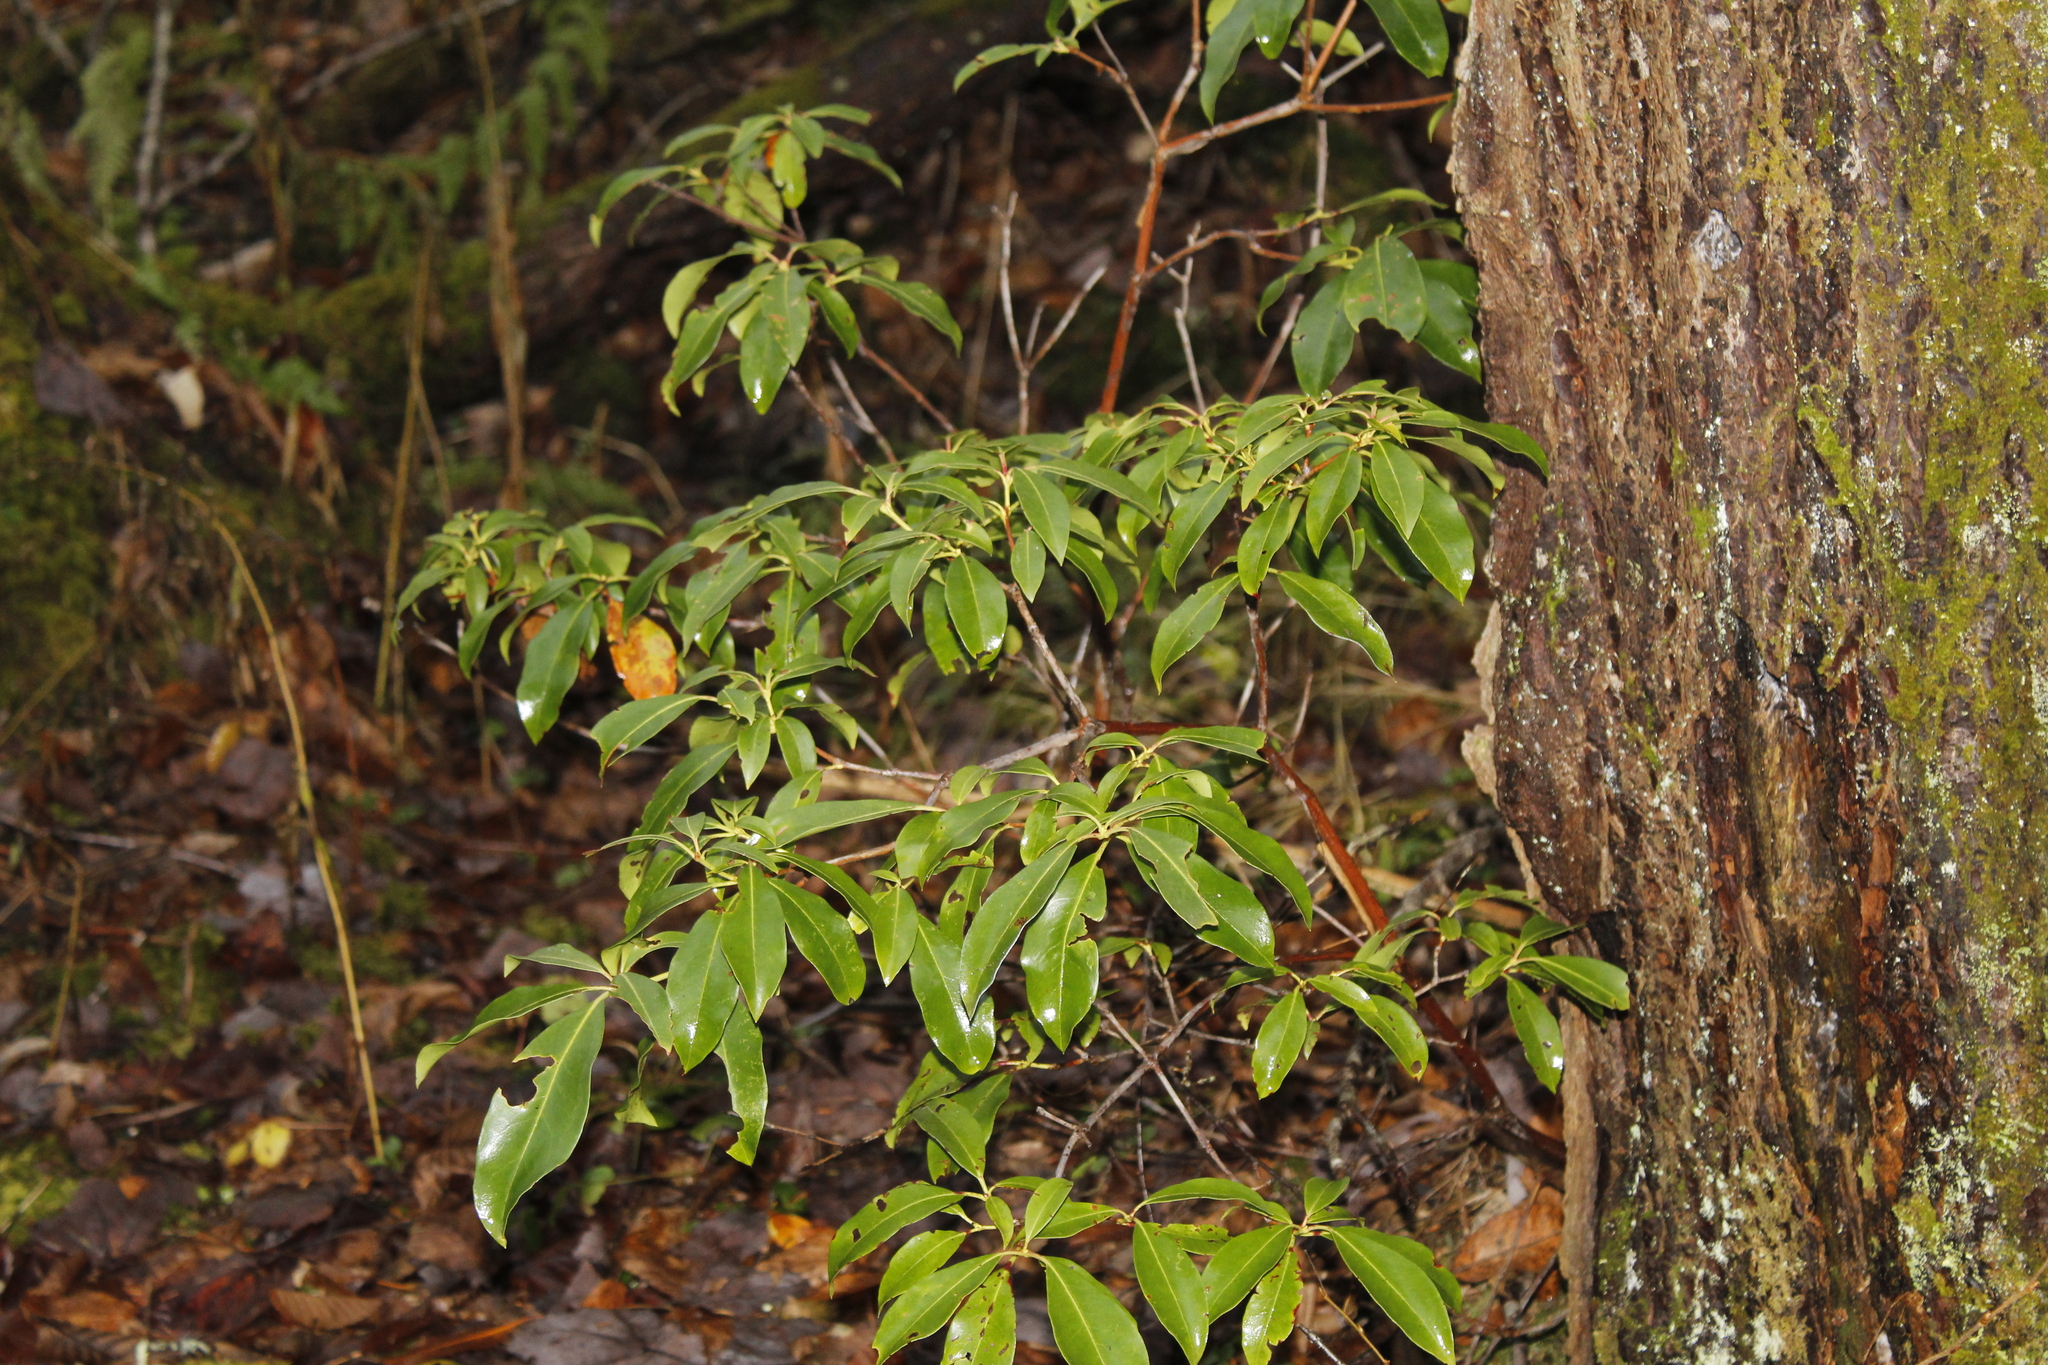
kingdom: Plantae
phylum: Tracheophyta
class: Magnoliopsida
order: Ericales
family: Ericaceae
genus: Kalmia
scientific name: Kalmia latifolia
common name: Mountain-laurel
